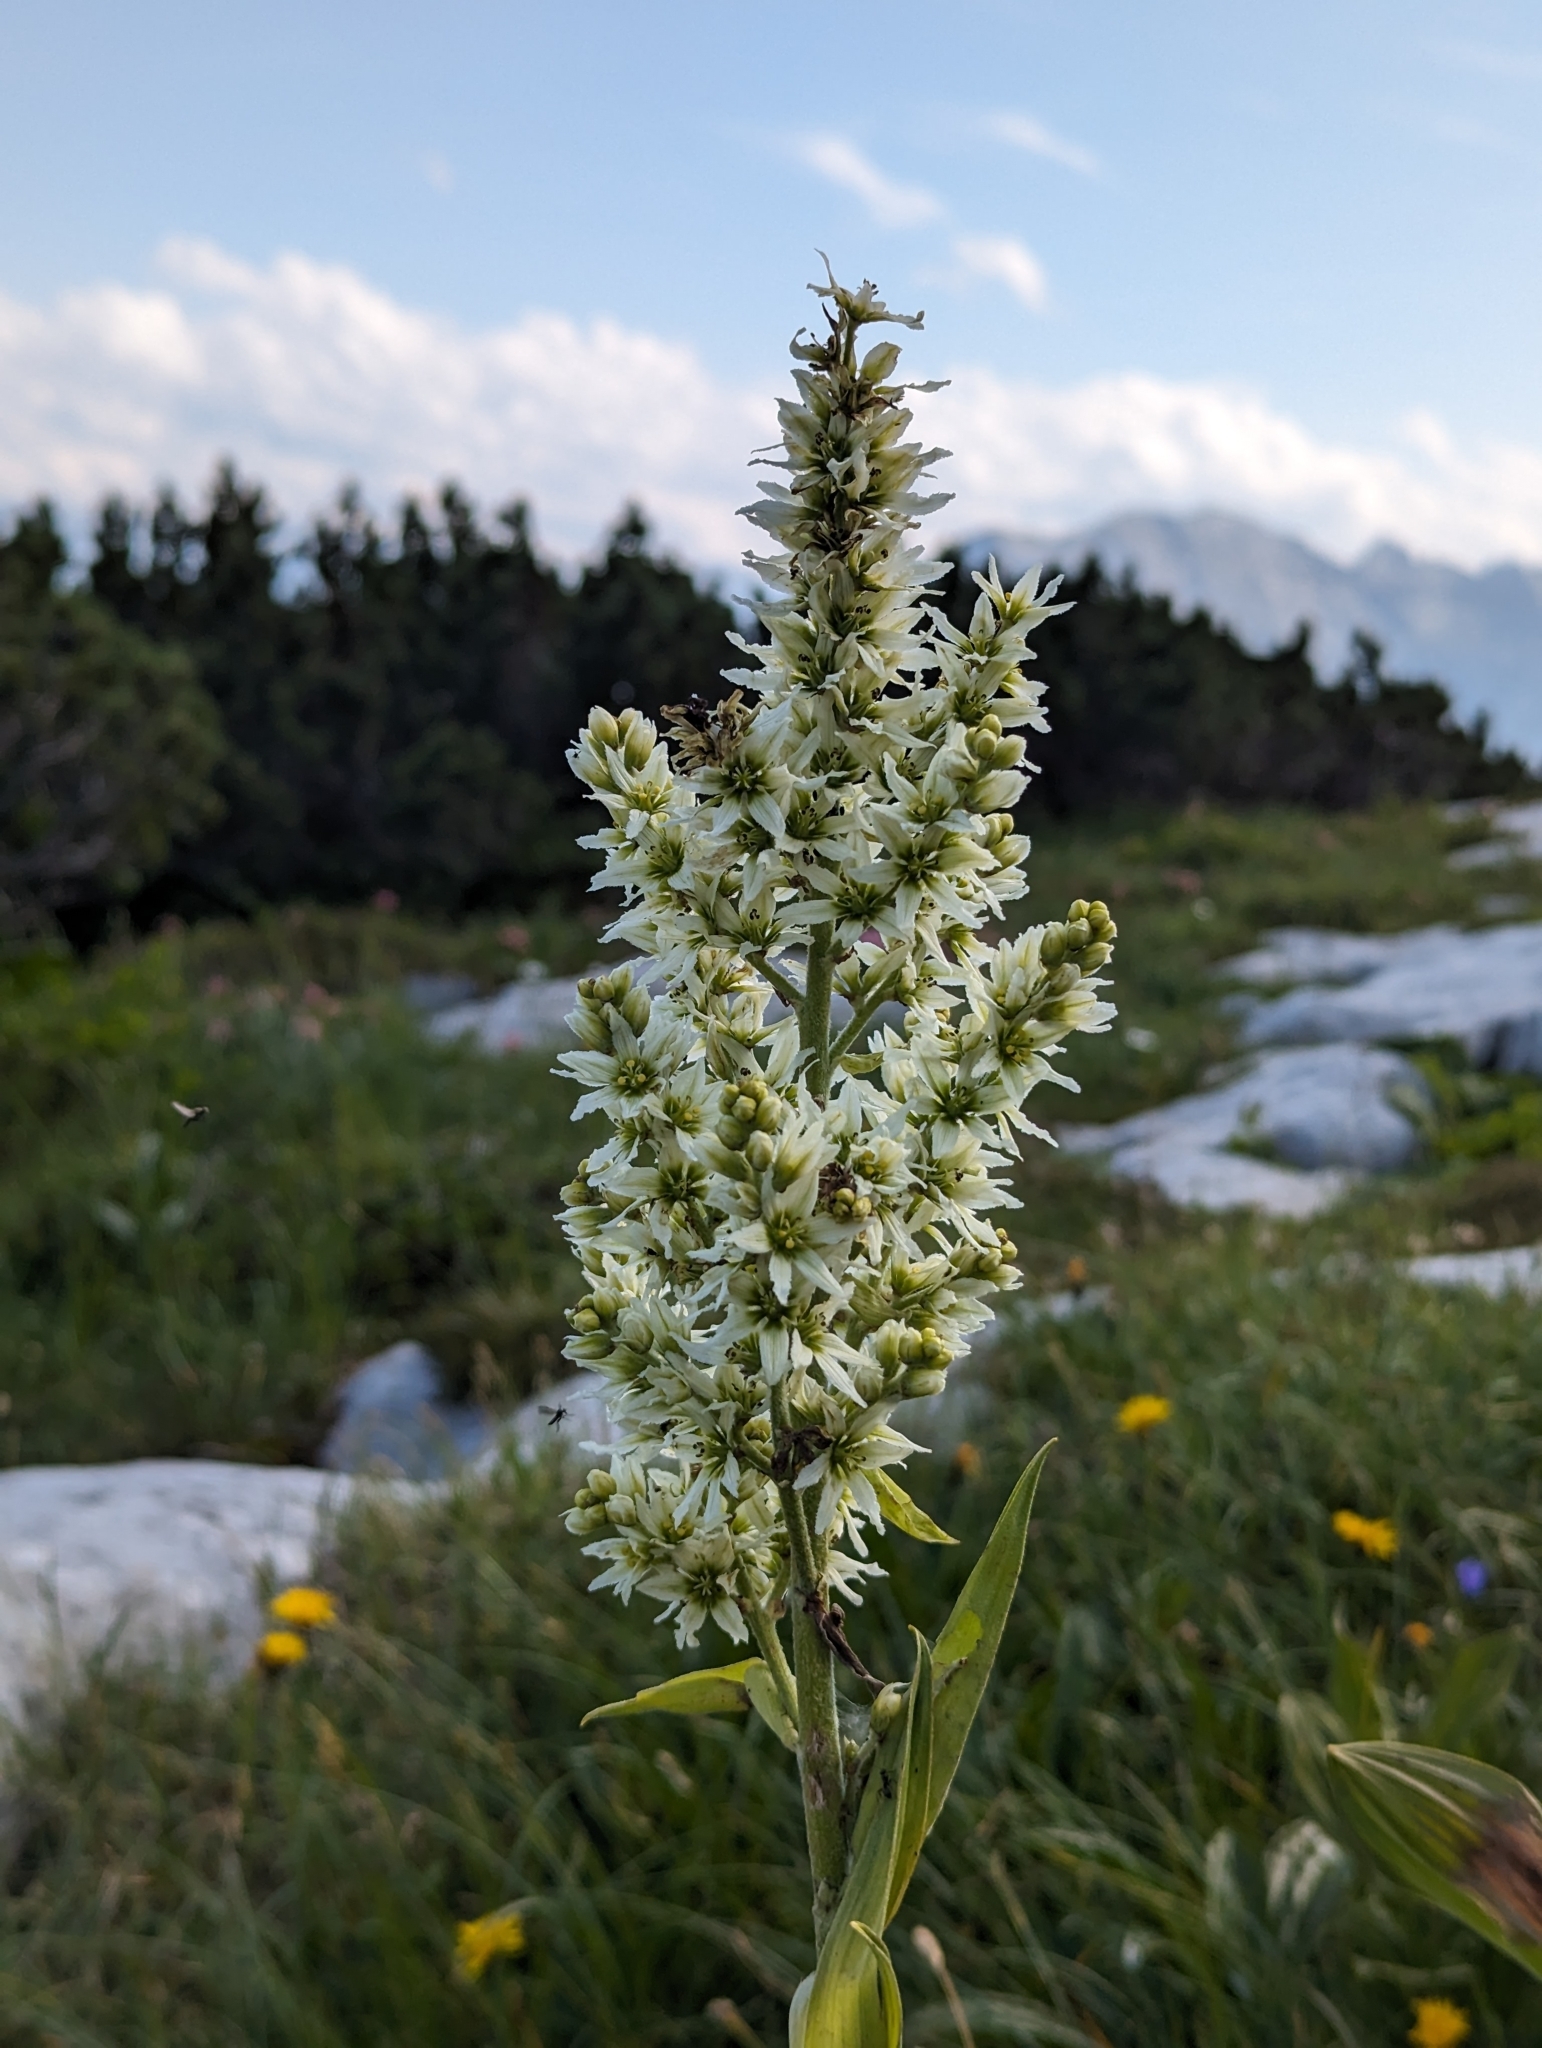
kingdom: Plantae
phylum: Tracheophyta
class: Liliopsida
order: Liliales
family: Melanthiaceae
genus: Veratrum
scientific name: Veratrum album
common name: White veratrum
